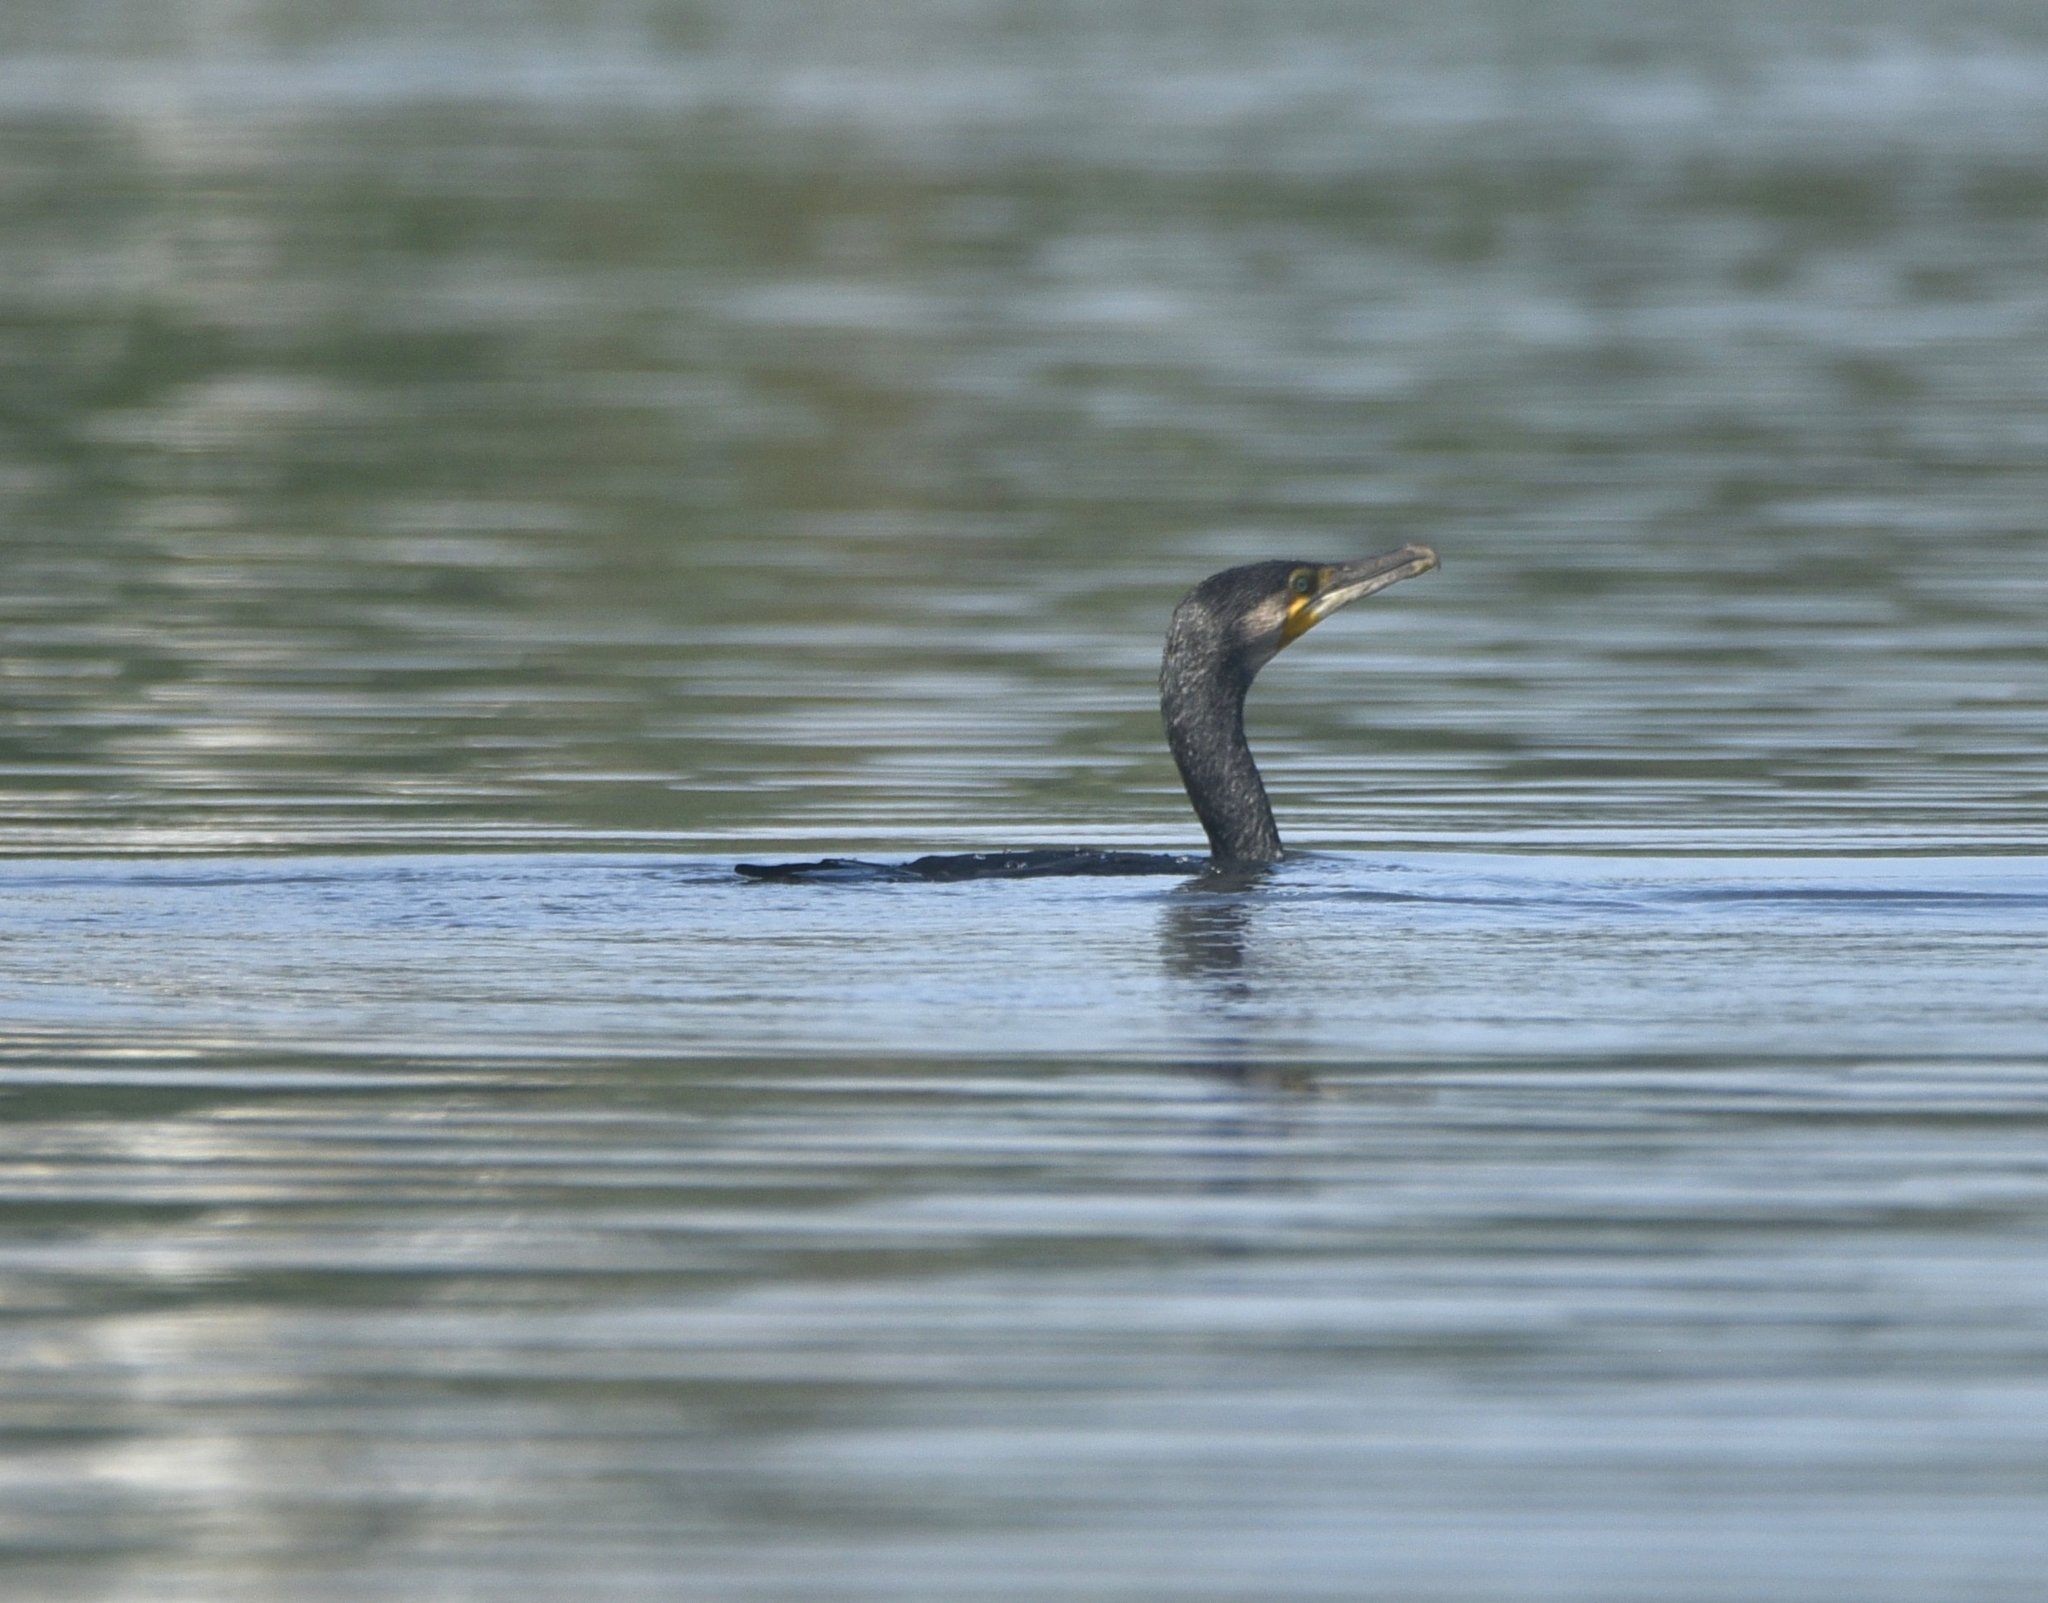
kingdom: Animalia
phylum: Chordata
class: Aves
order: Suliformes
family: Phalacrocoracidae
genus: Phalacrocorax
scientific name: Phalacrocorax carbo
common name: Great cormorant
